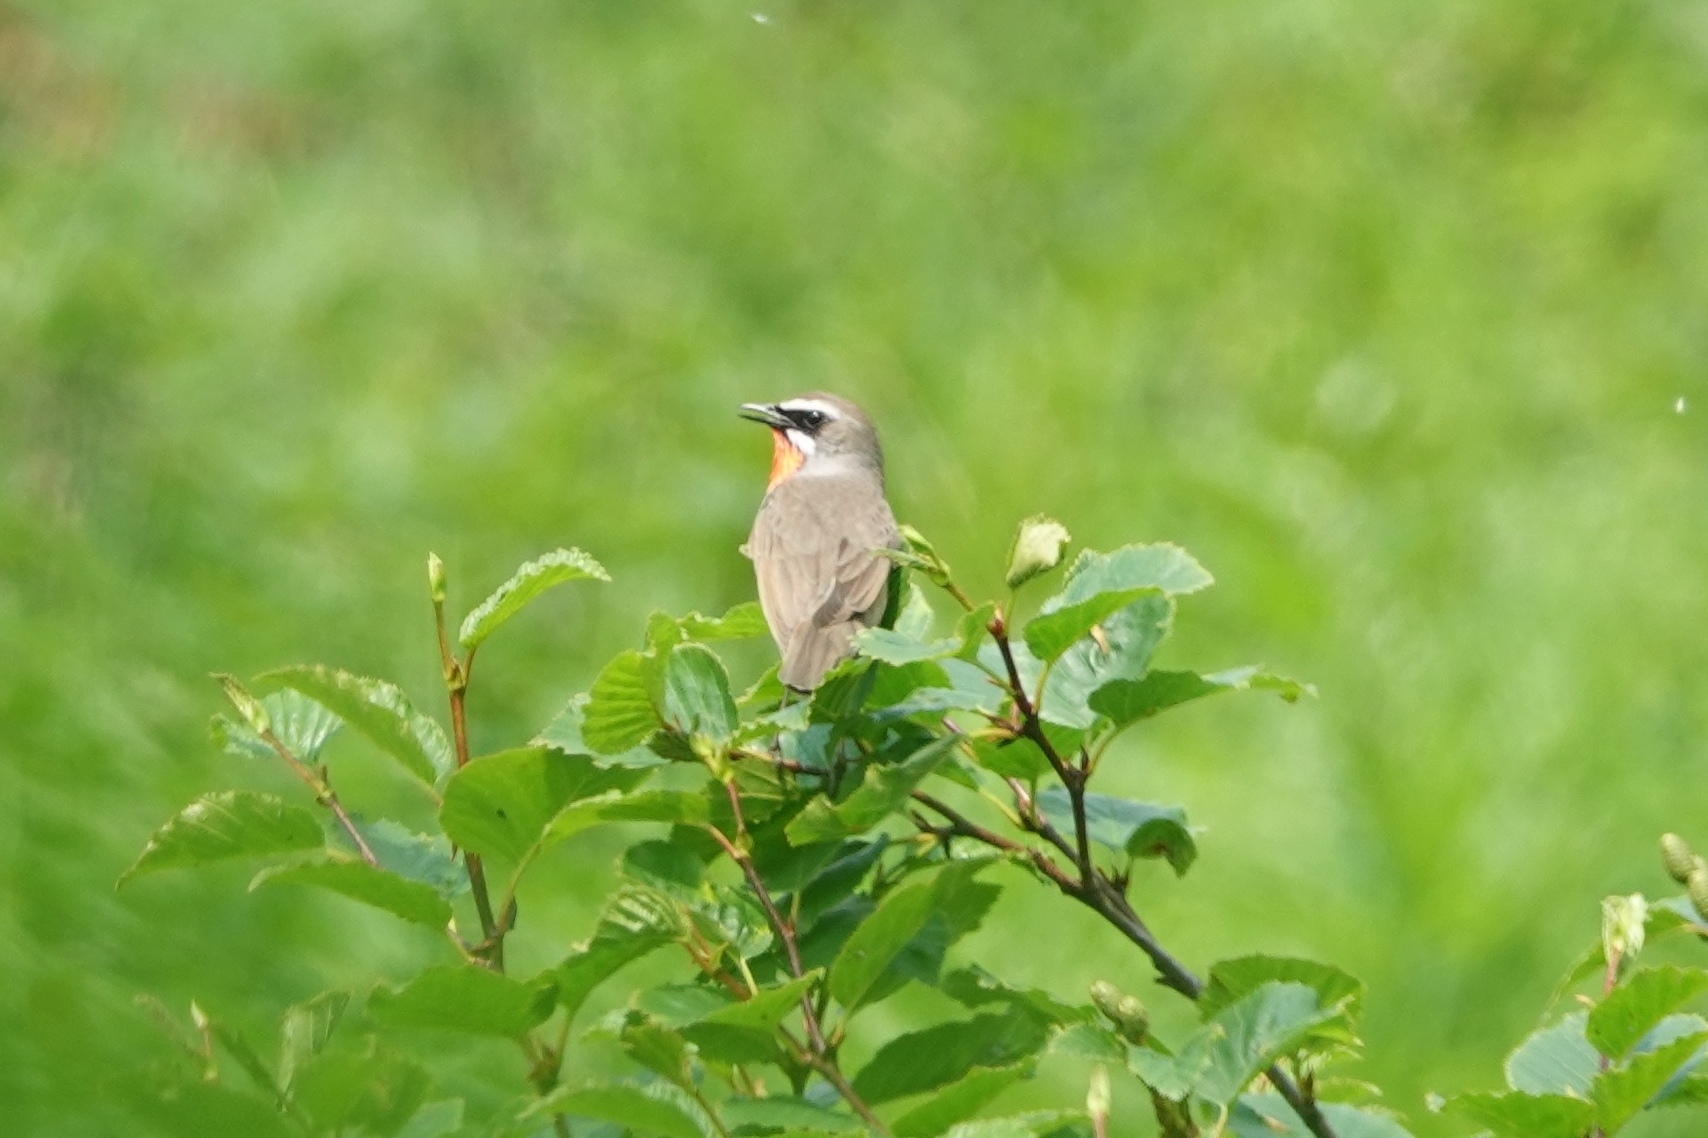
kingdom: Animalia
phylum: Chordata
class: Aves
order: Passeriformes
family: Muscicapidae
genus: Luscinia
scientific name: Luscinia calliope
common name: Siberian rubythroat
